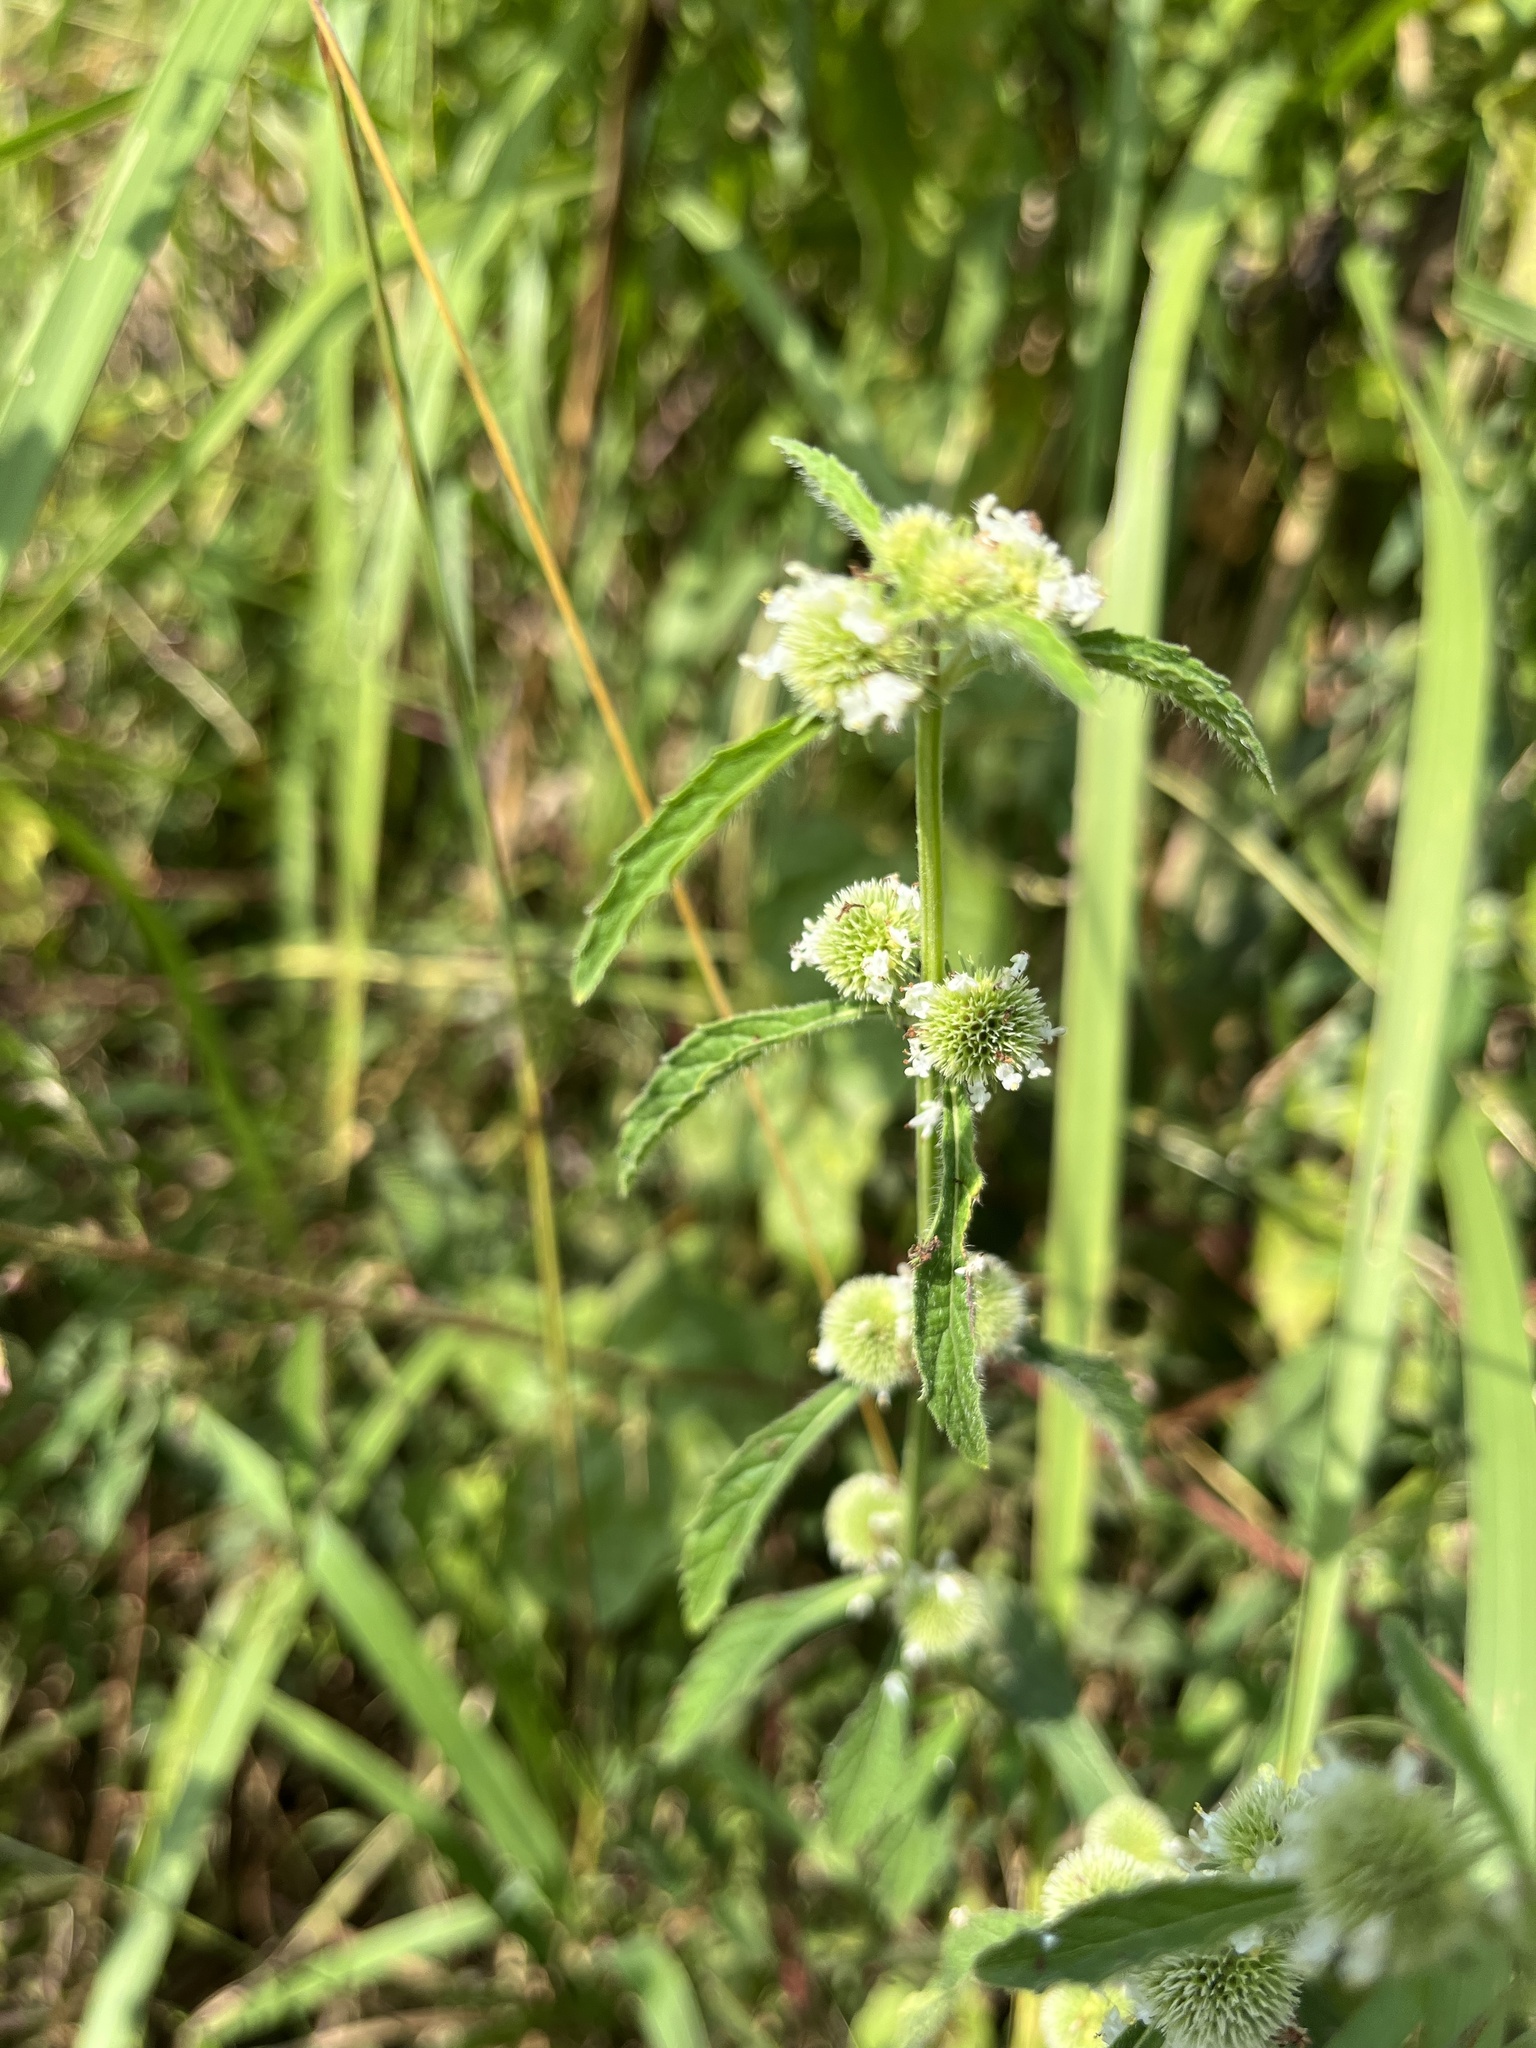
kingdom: Plantae
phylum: Tracheophyta
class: Magnoliopsida
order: Lamiales
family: Lamiaceae
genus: Hyptis
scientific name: Hyptis brevipes
